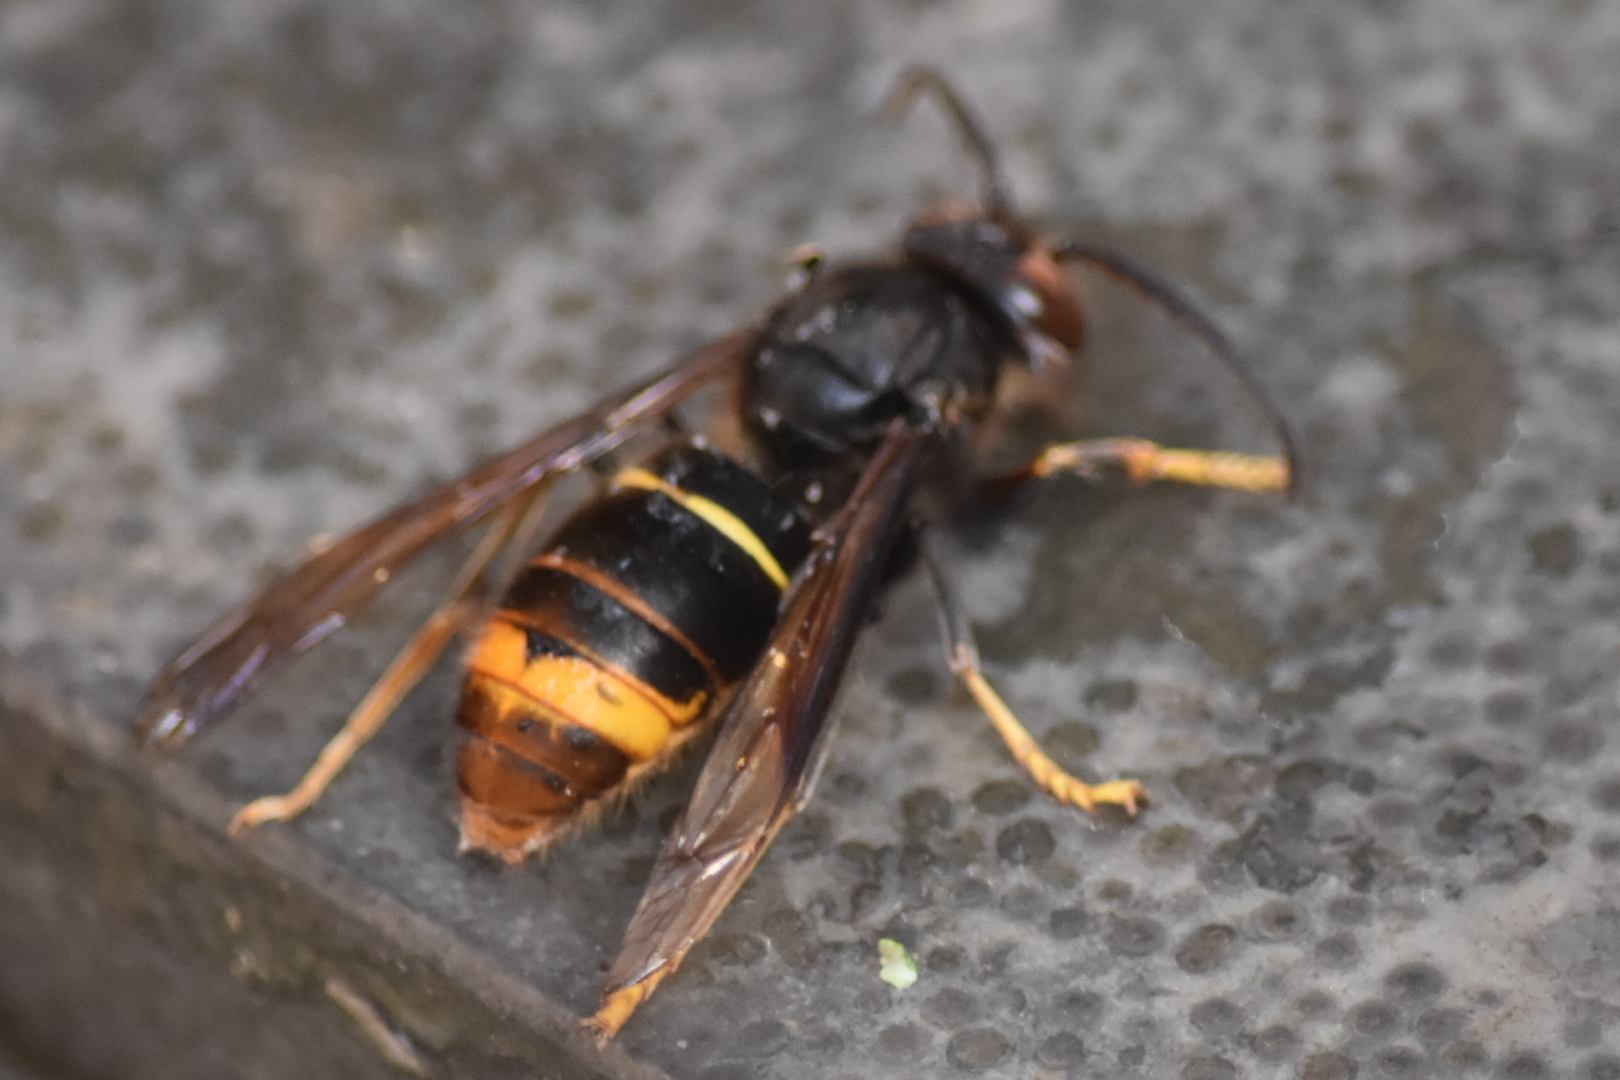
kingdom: Animalia
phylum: Arthropoda
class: Insecta
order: Hymenoptera
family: Vespidae
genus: Vespa
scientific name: Vespa velutina
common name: Asian hornet
